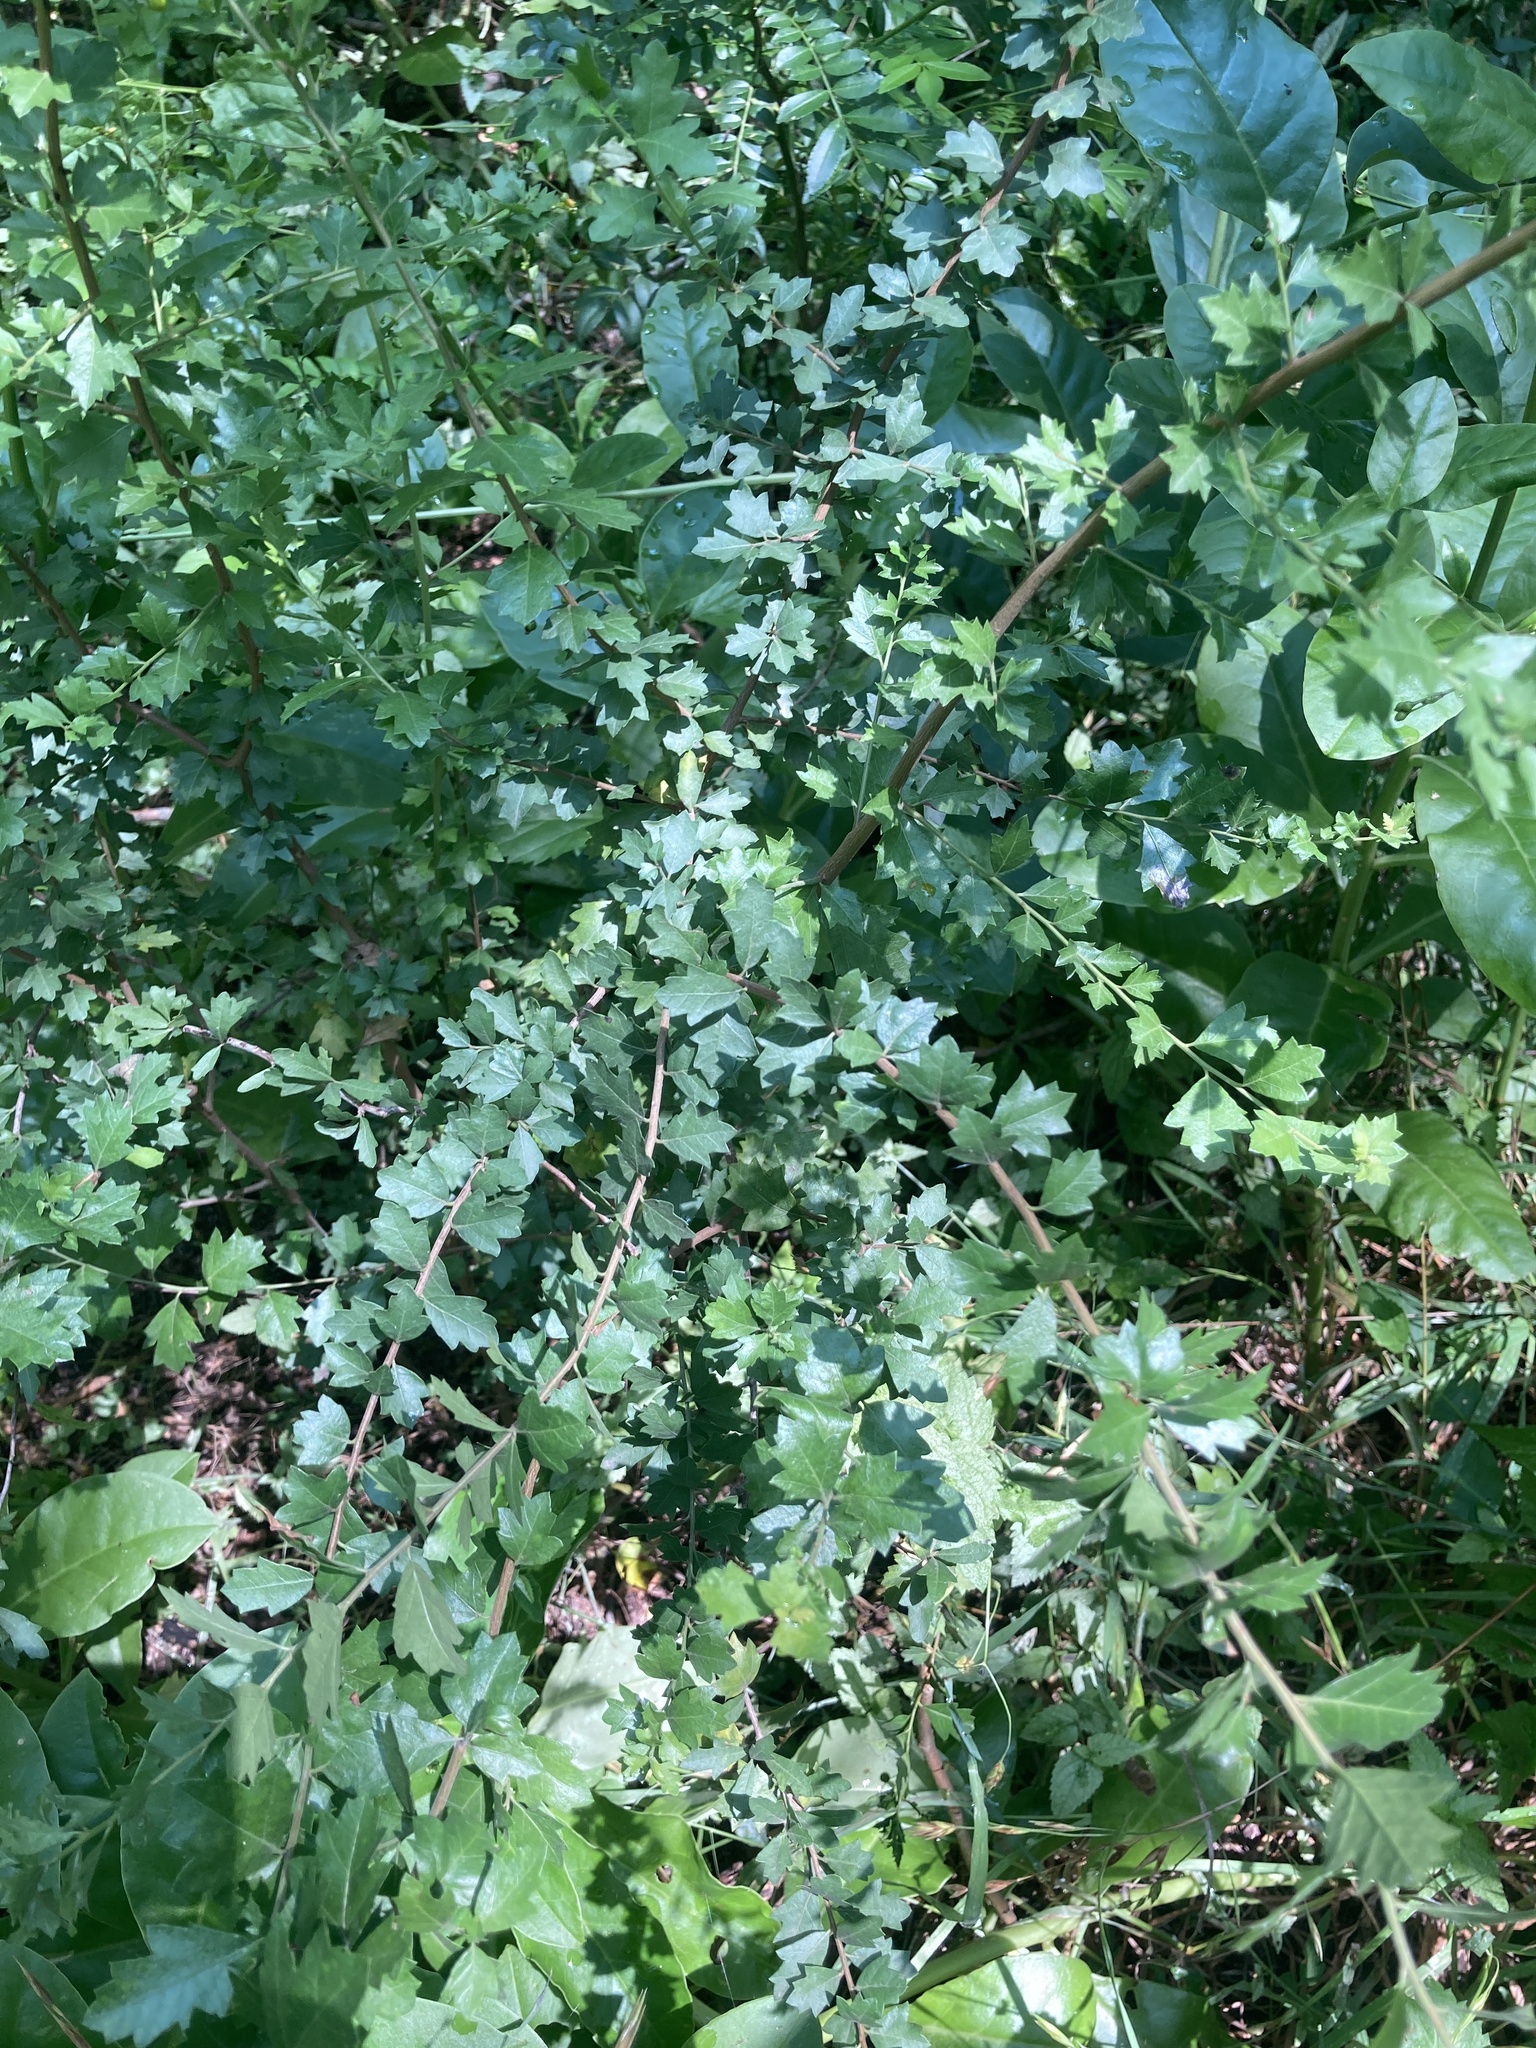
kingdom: Plantae
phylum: Tracheophyta
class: Magnoliopsida
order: Sapindales
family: Anacardiaceae
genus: Schinus
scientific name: Schinus fasciculata
